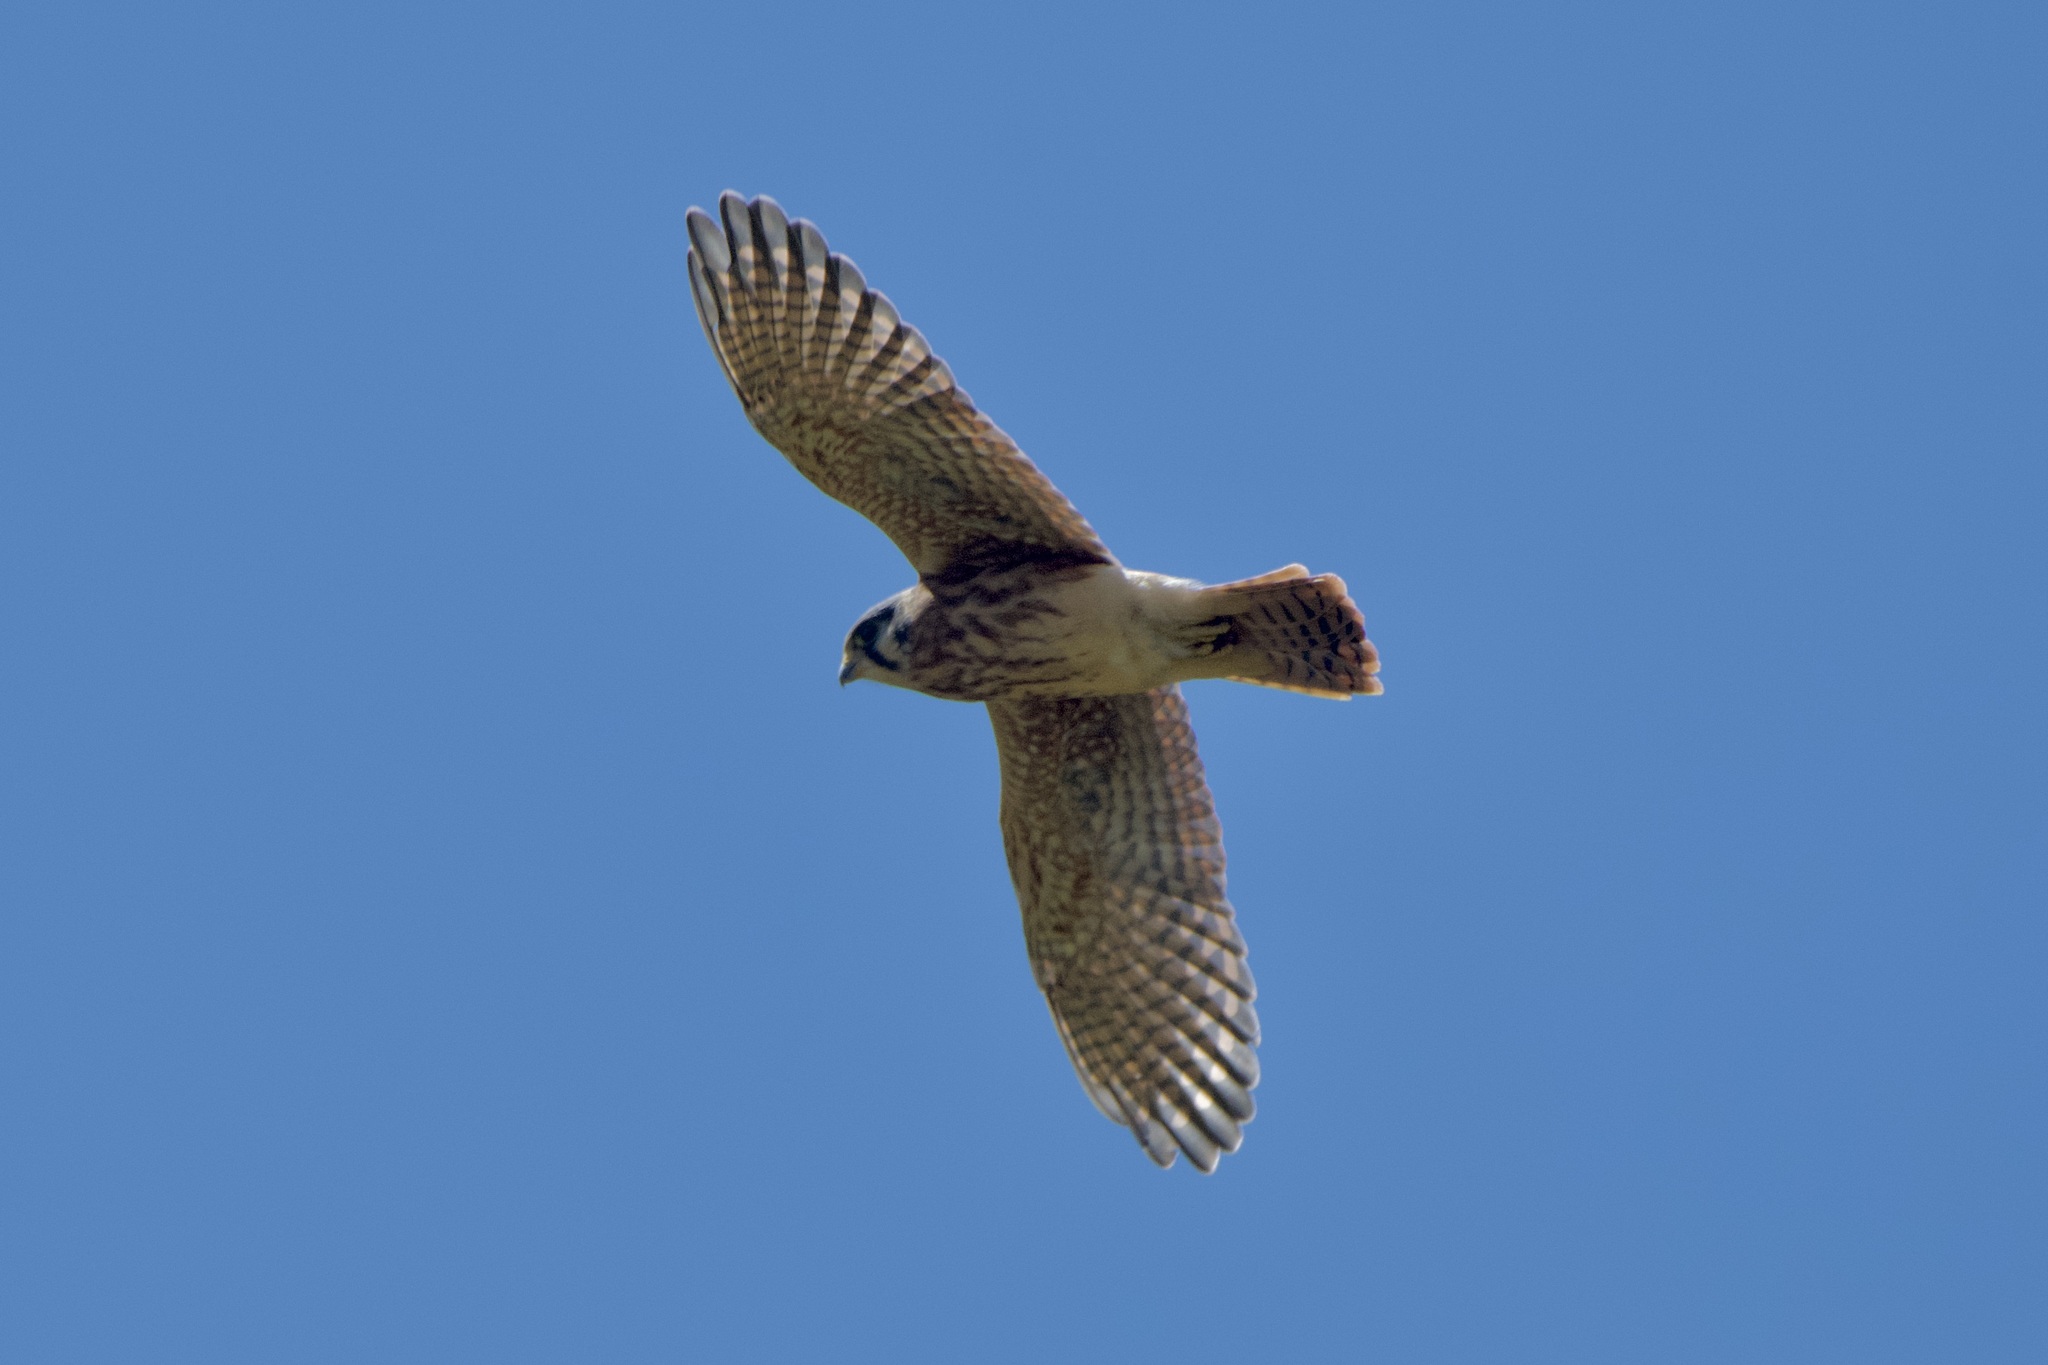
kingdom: Animalia
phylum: Chordata
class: Aves
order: Falconiformes
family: Falconidae
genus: Falco
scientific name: Falco sparverius
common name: American kestrel
